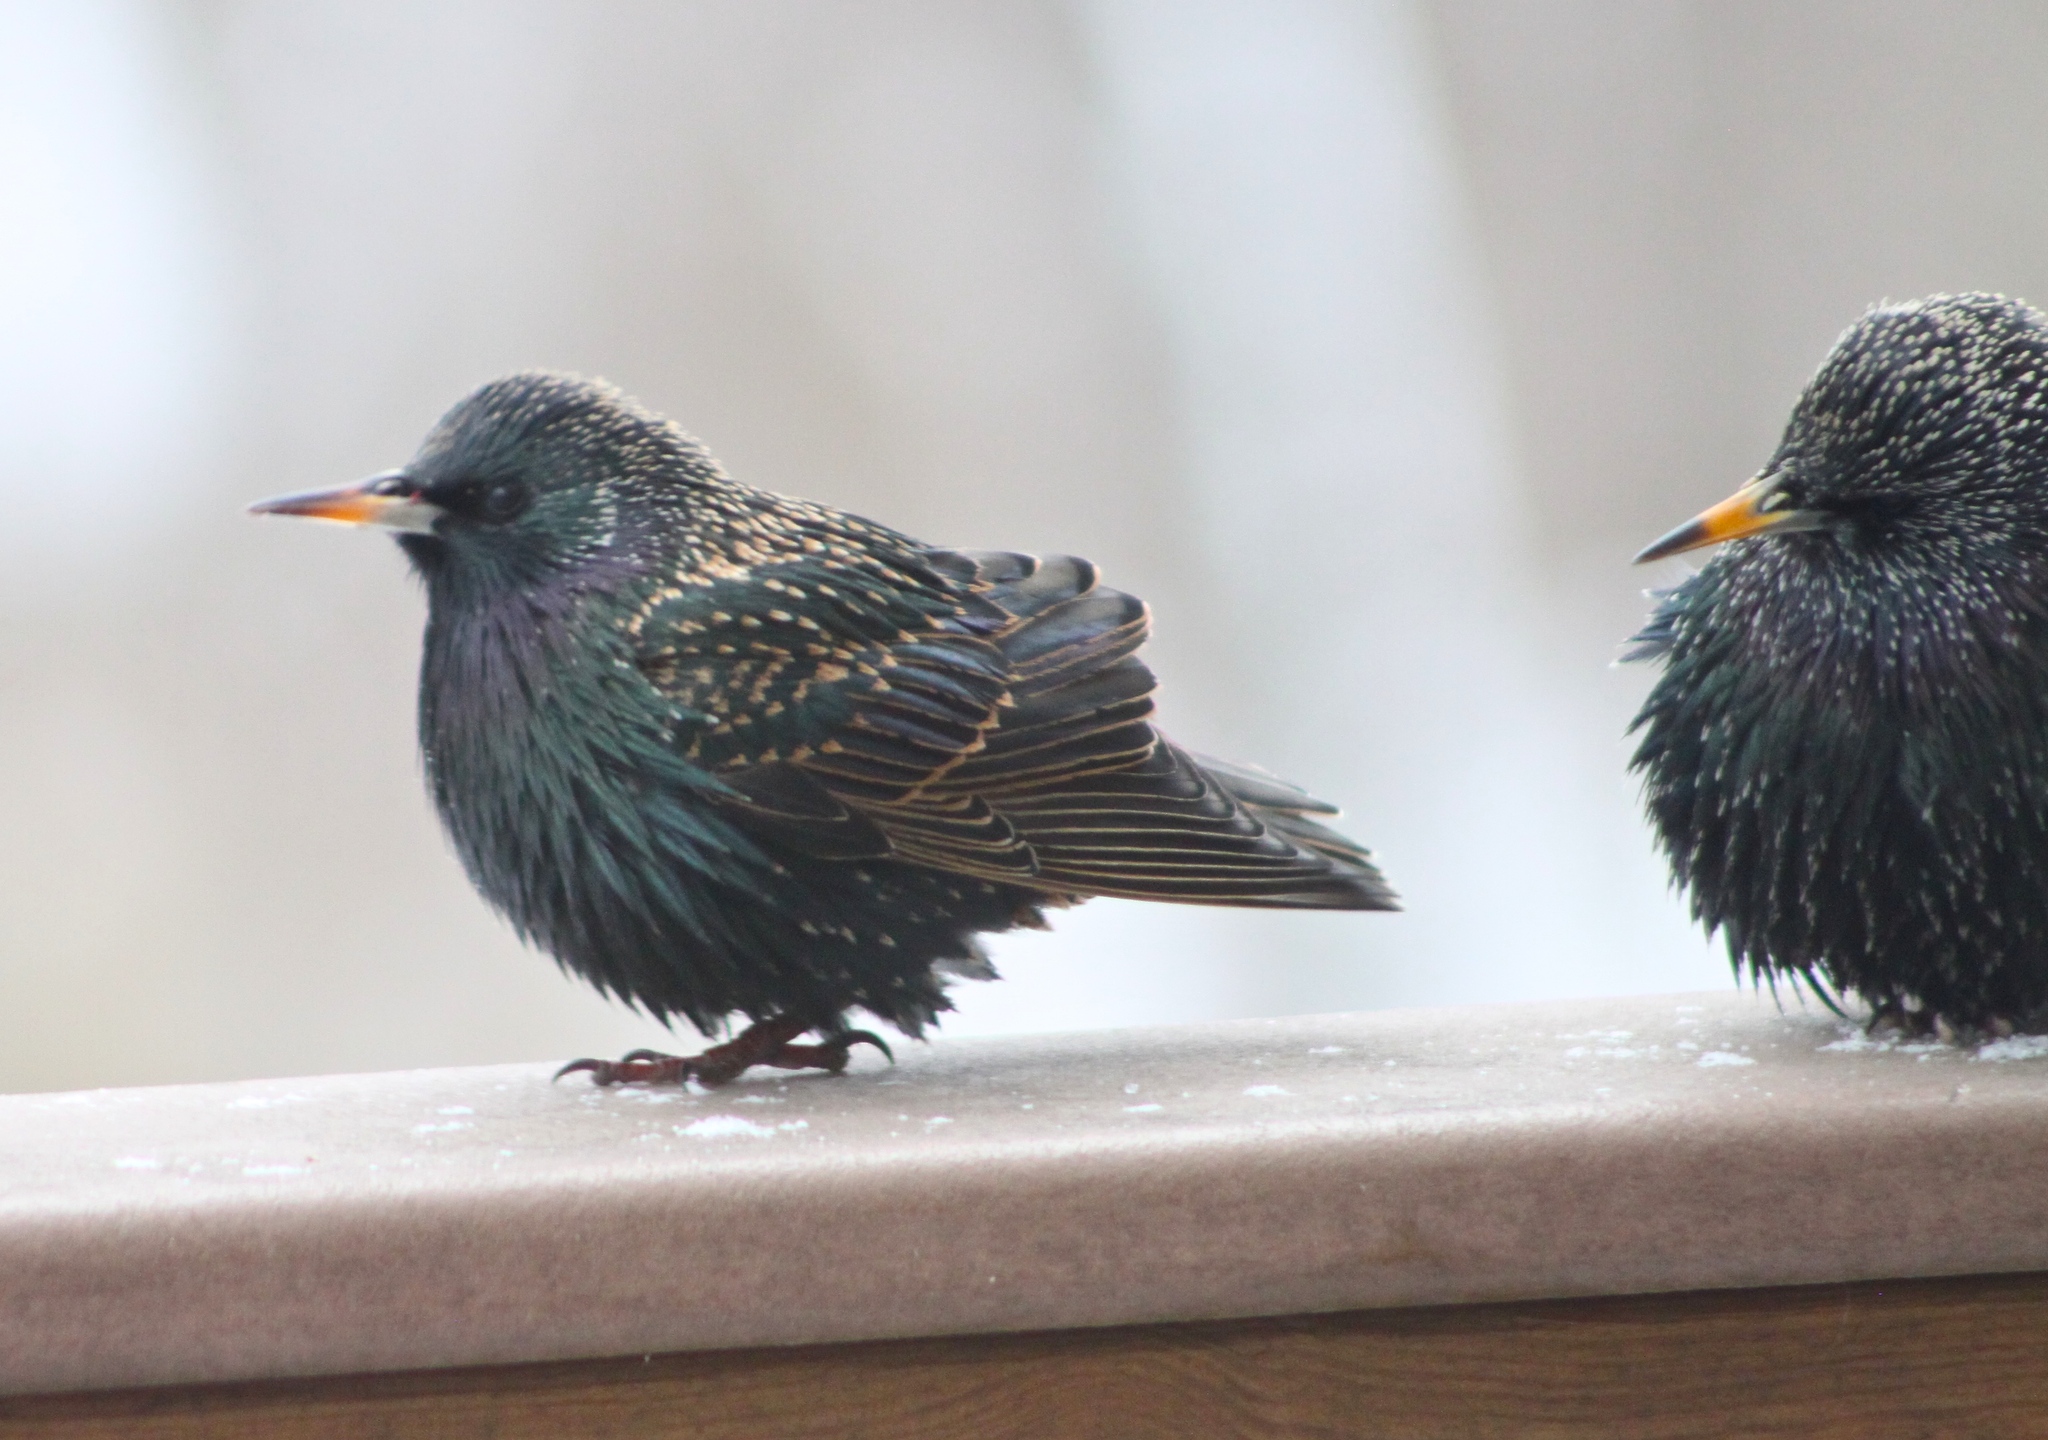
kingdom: Animalia
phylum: Chordata
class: Aves
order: Passeriformes
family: Sturnidae
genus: Sturnus
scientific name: Sturnus vulgaris
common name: Common starling
